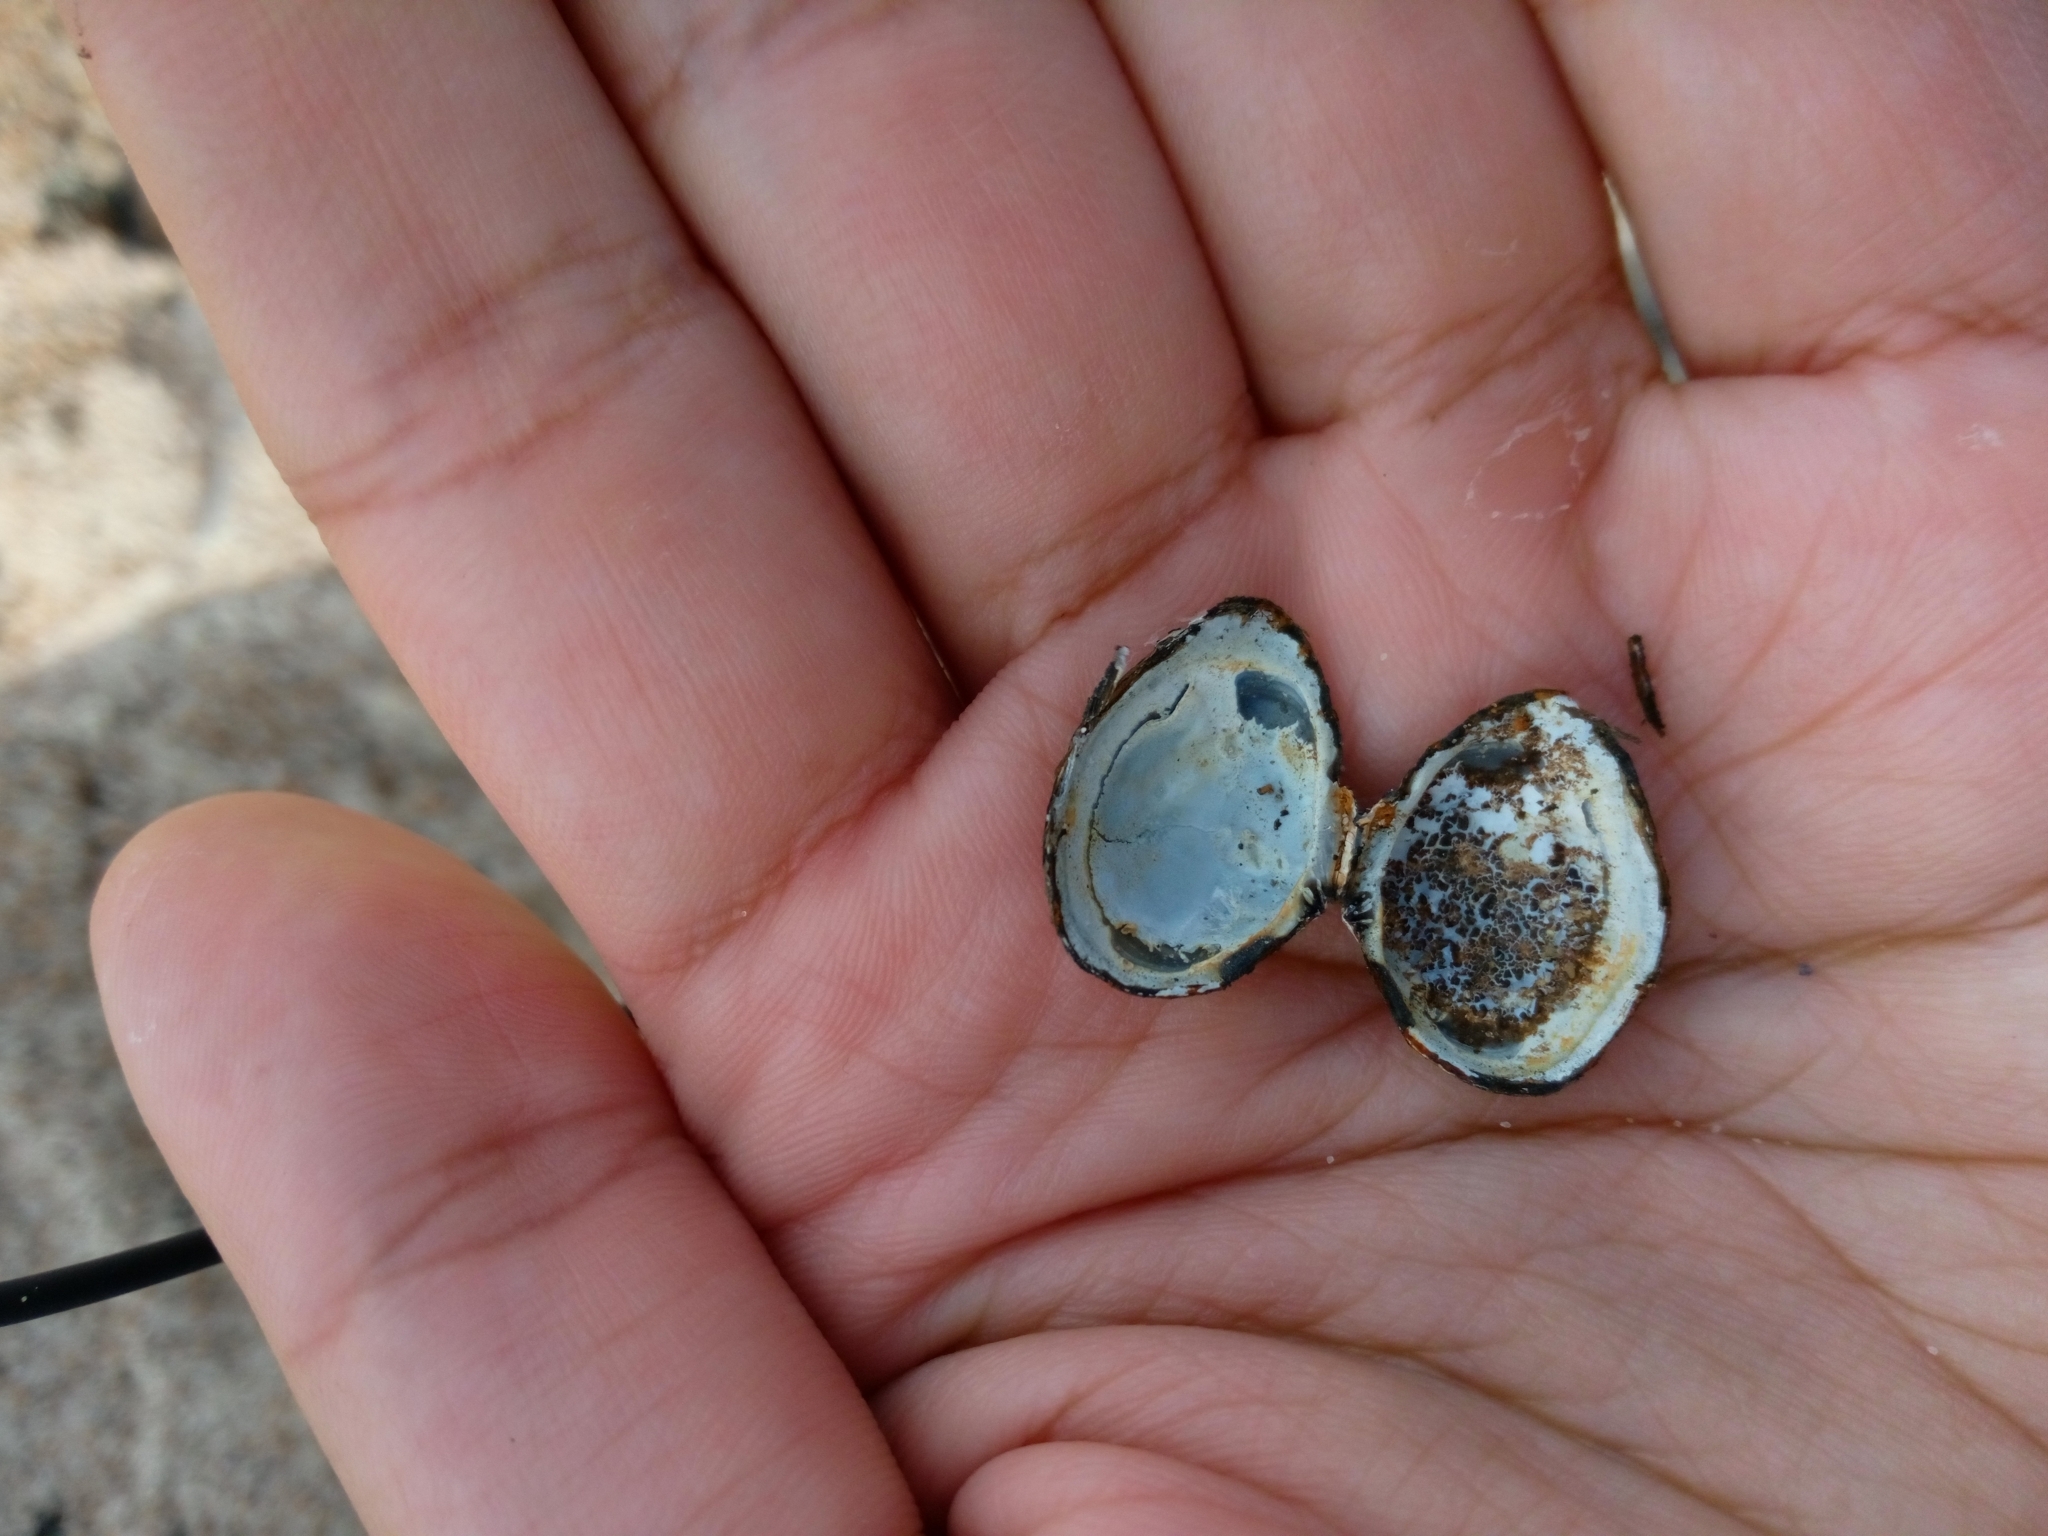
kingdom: Animalia
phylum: Mollusca
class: Bivalvia
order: Cardiida
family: Tellinidae
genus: Macoma
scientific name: Macoma balthica
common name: Baltic tellin
